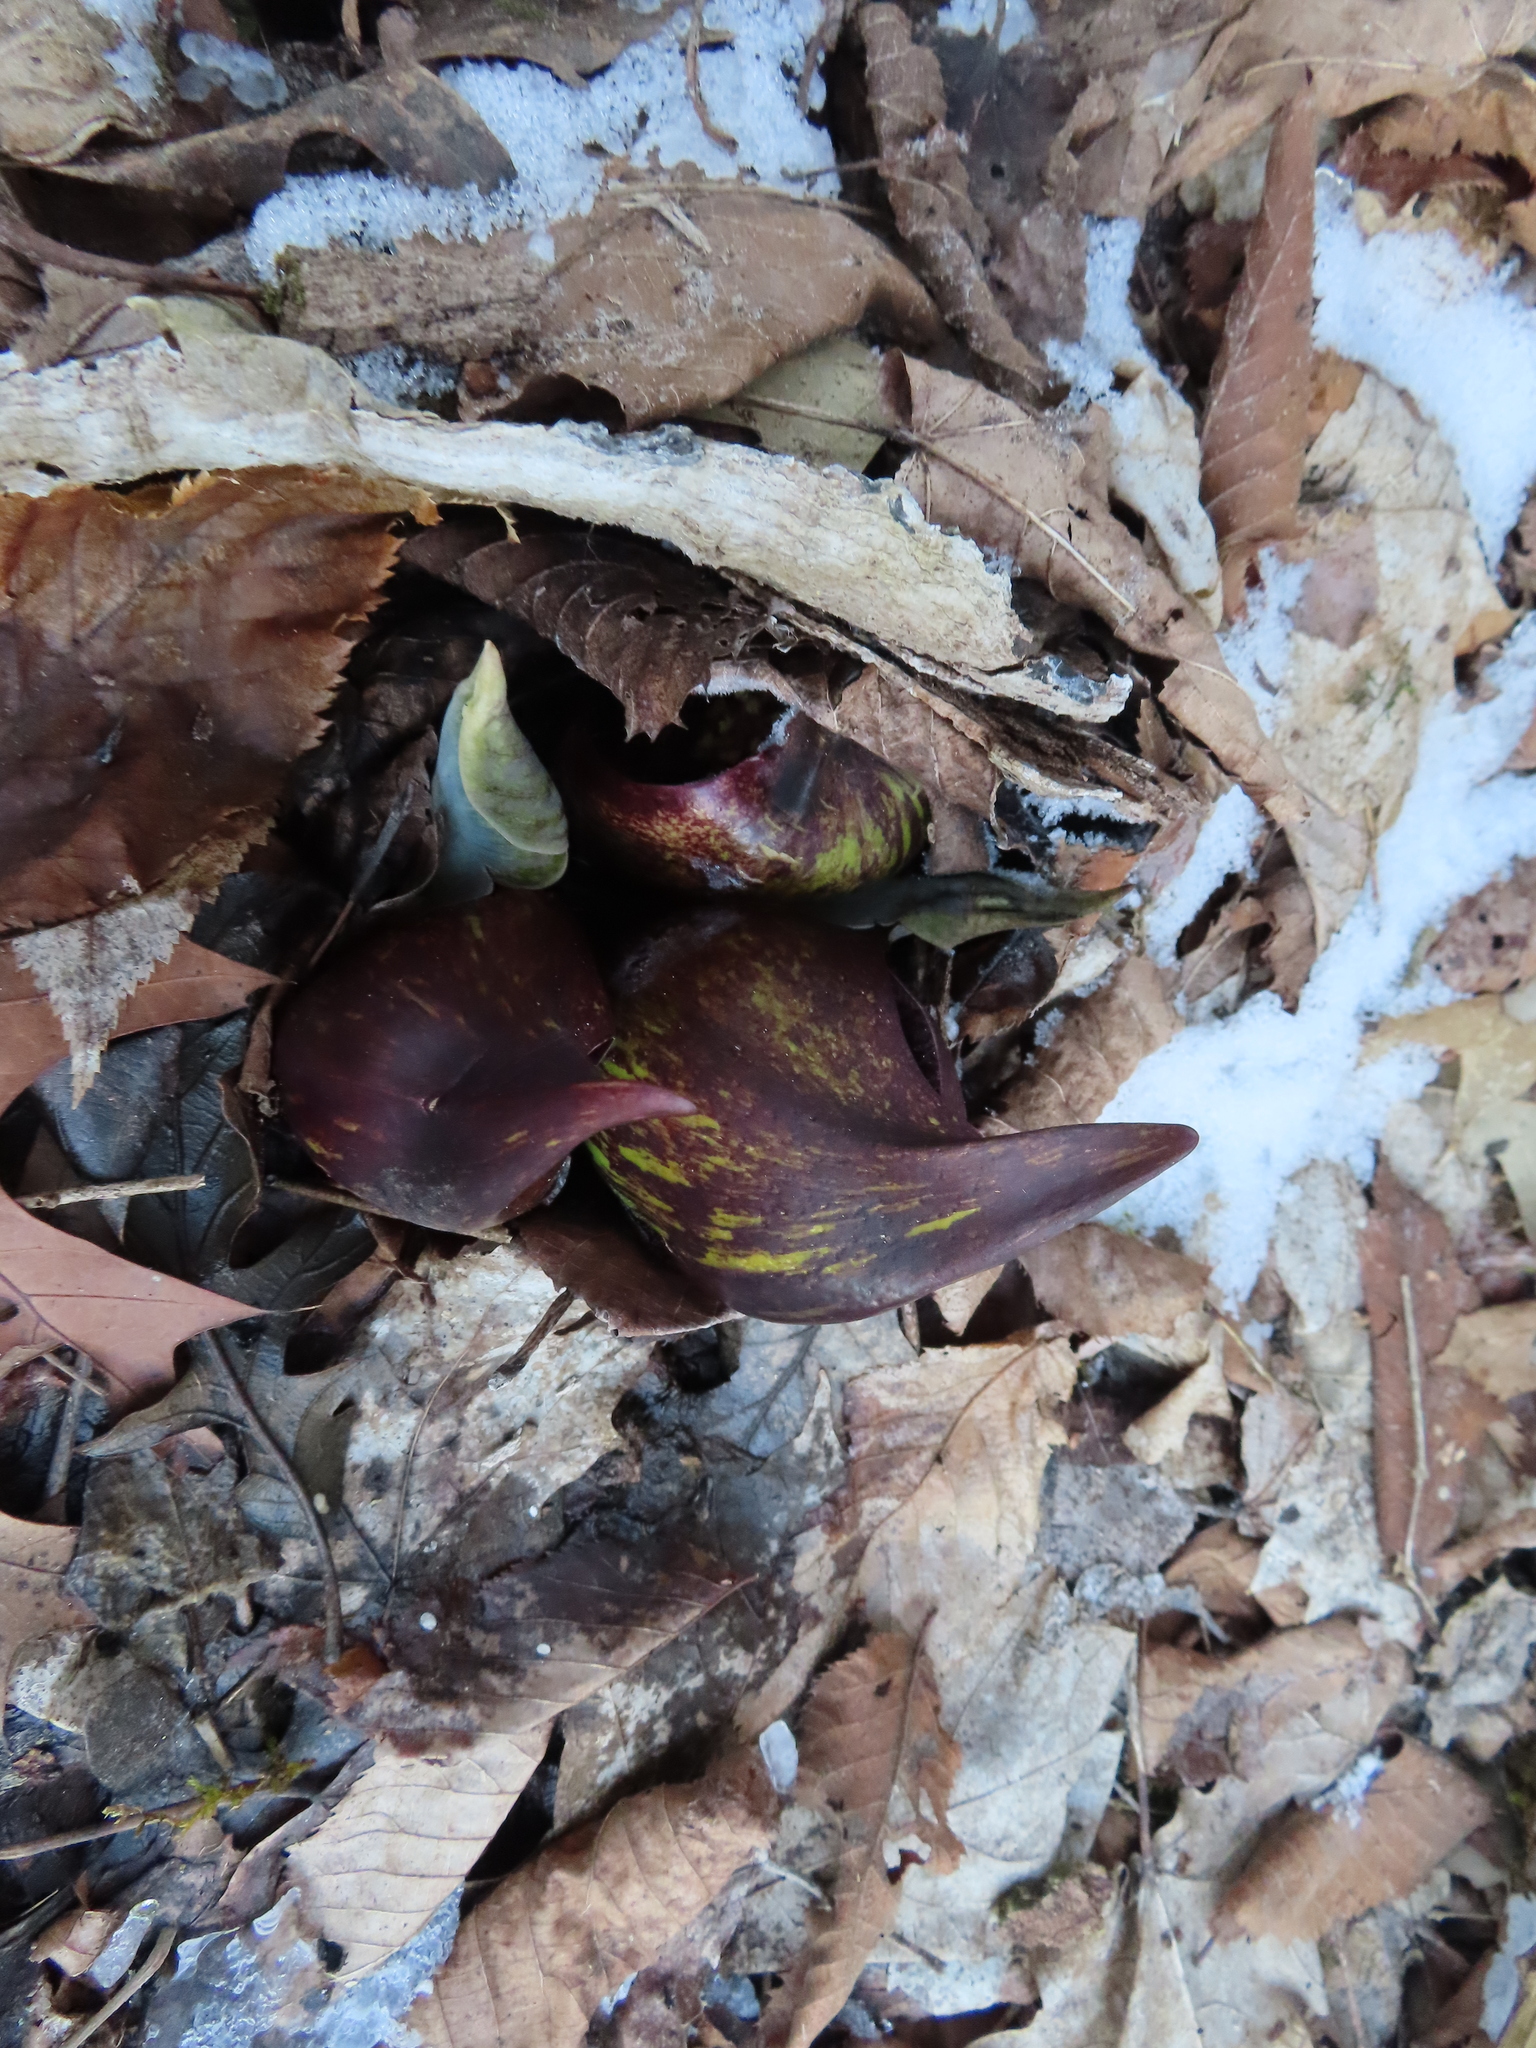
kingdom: Plantae
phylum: Tracheophyta
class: Liliopsida
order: Alismatales
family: Araceae
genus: Symplocarpus
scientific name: Symplocarpus foetidus
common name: Eastern skunk cabbage
